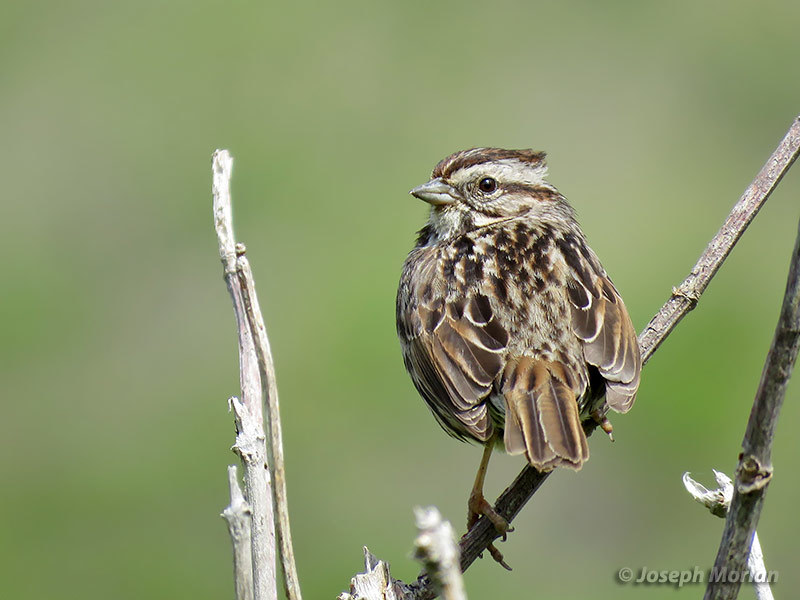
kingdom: Animalia
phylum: Chordata
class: Aves
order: Passeriformes
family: Passerellidae
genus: Melospiza
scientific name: Melospiza melodia
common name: Song sparrow
